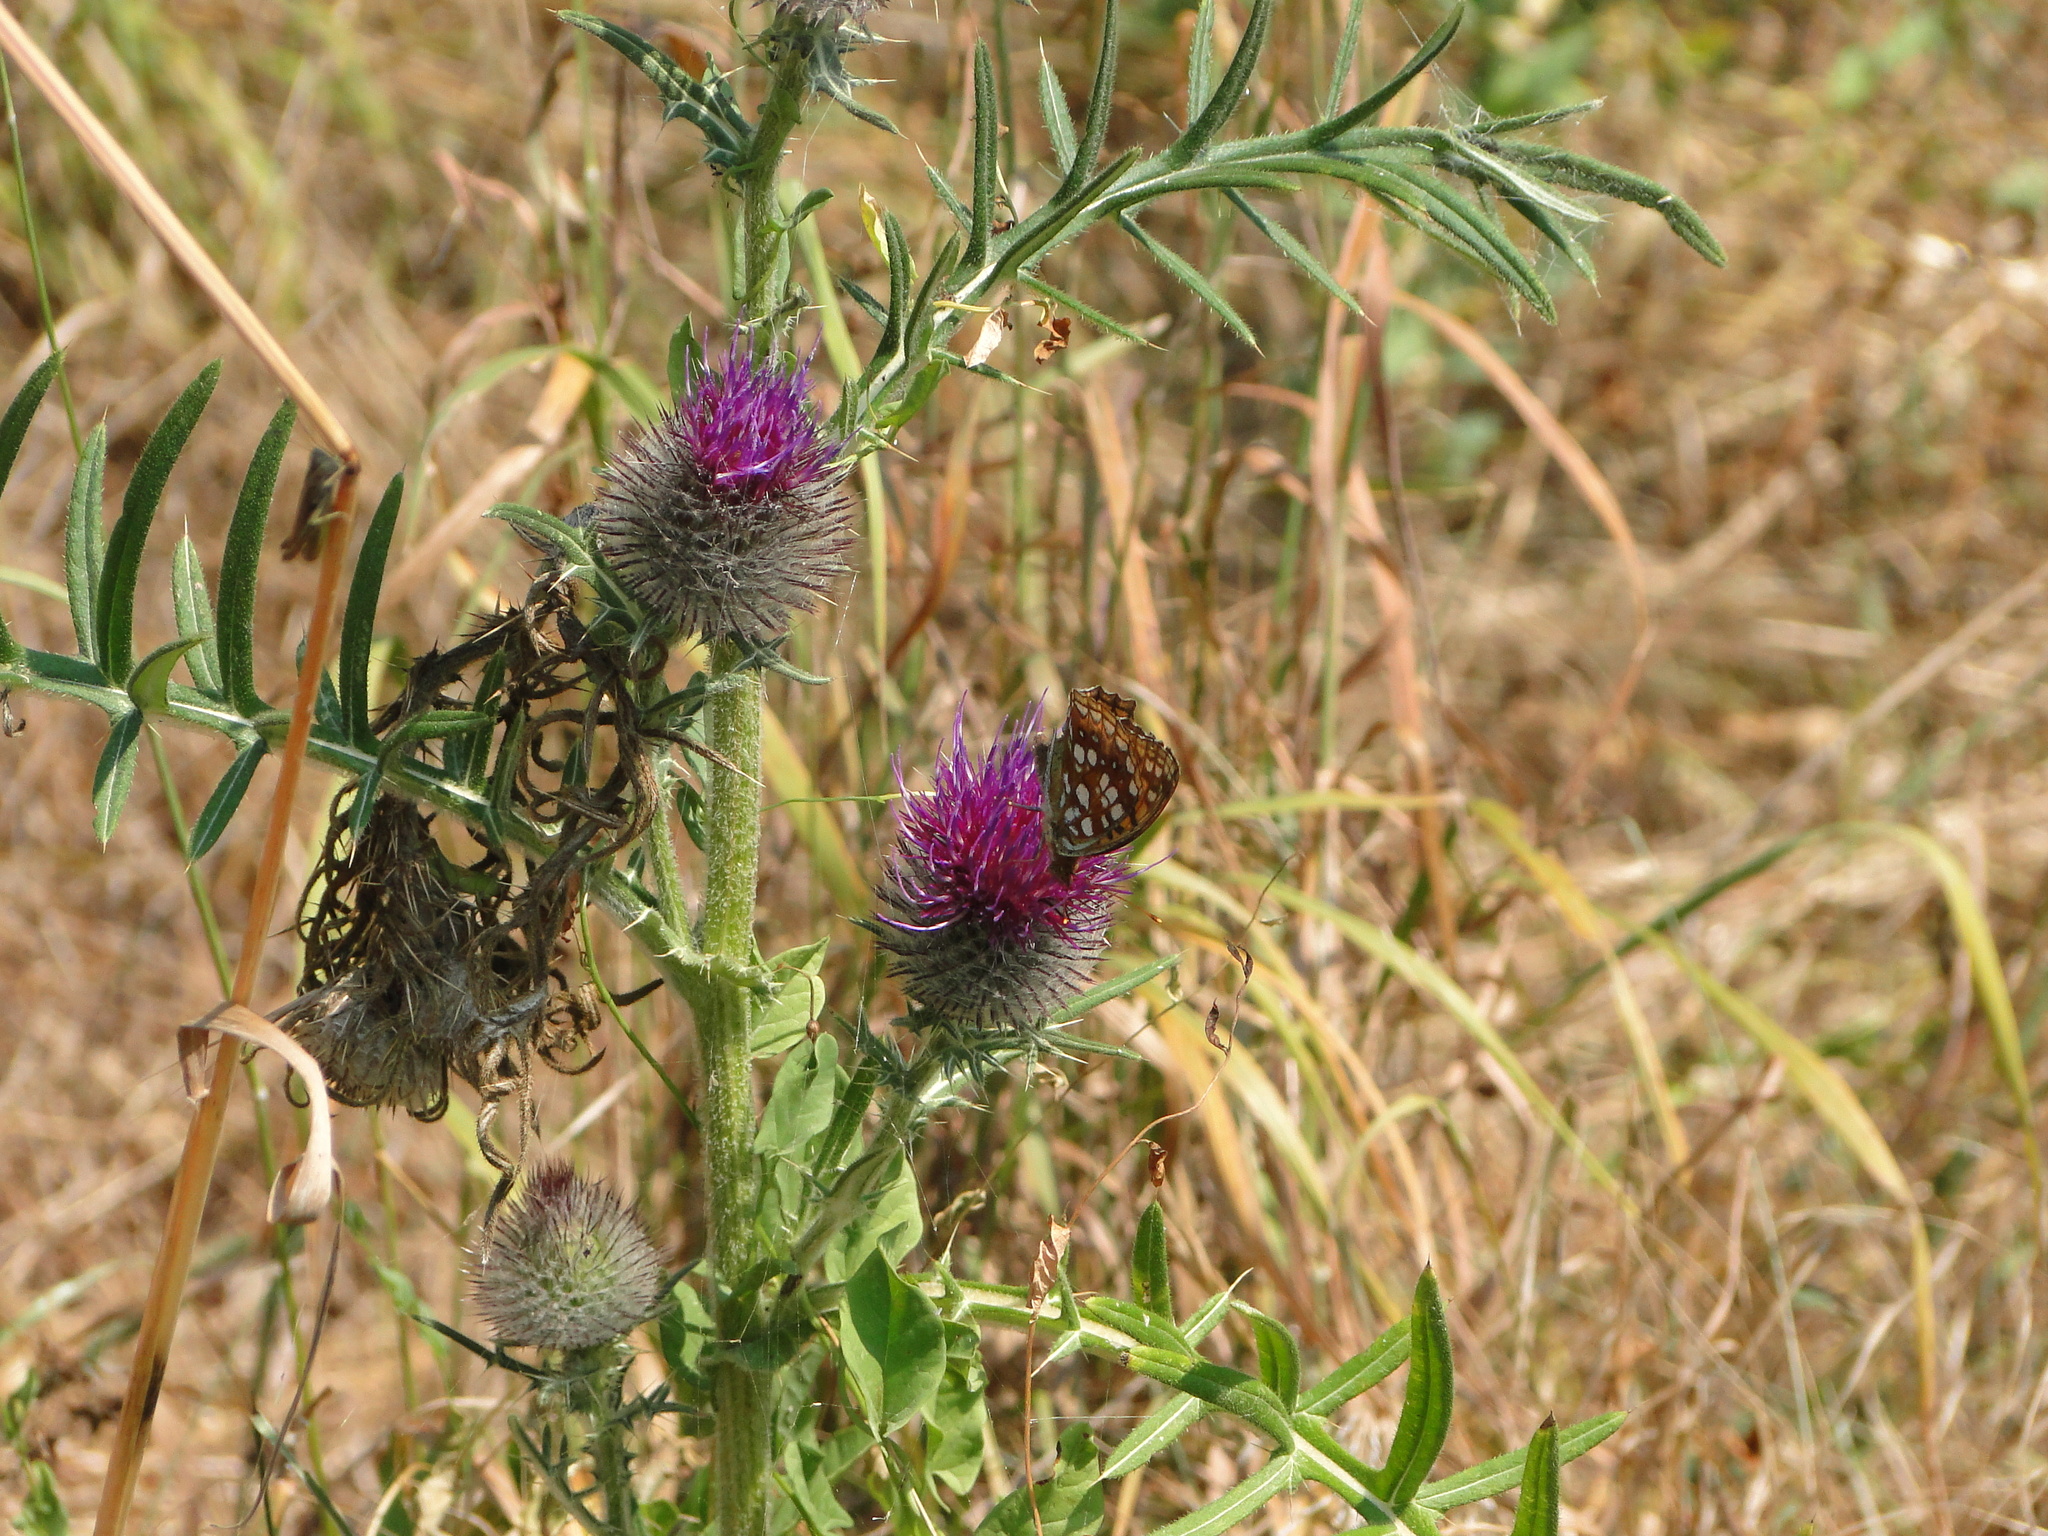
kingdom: Animalia
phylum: Arthropoda
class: Insecta
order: Lepidoptera
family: Nymphalidae
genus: Fabriciana
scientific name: Fabriciana adippe
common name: High brown fritillary
